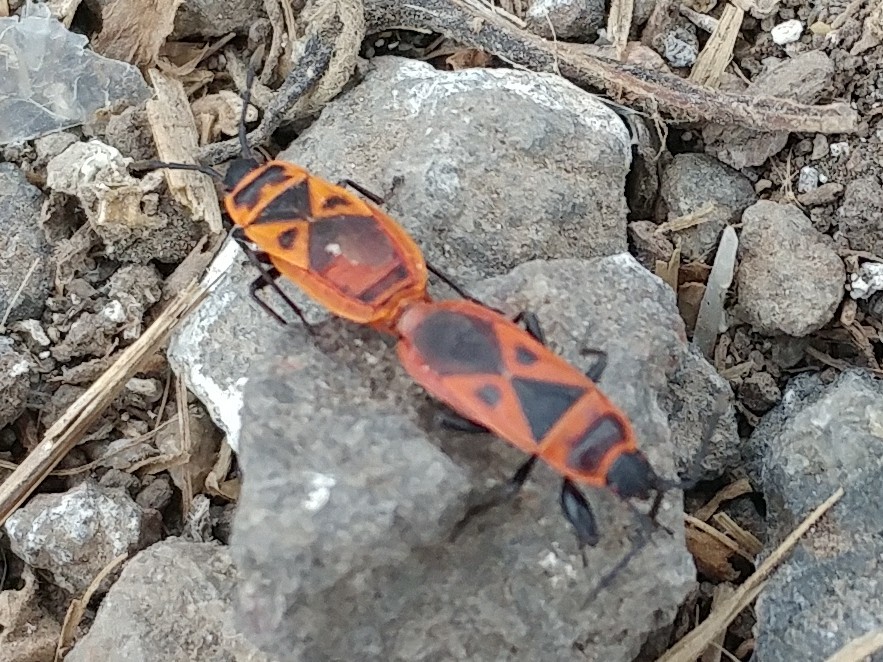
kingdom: Animalia
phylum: Arthropoda
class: Insecta
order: Hemiptera
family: Pyrrhocoridae
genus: Scantius
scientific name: Scantius aegyptius
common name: Red bug
